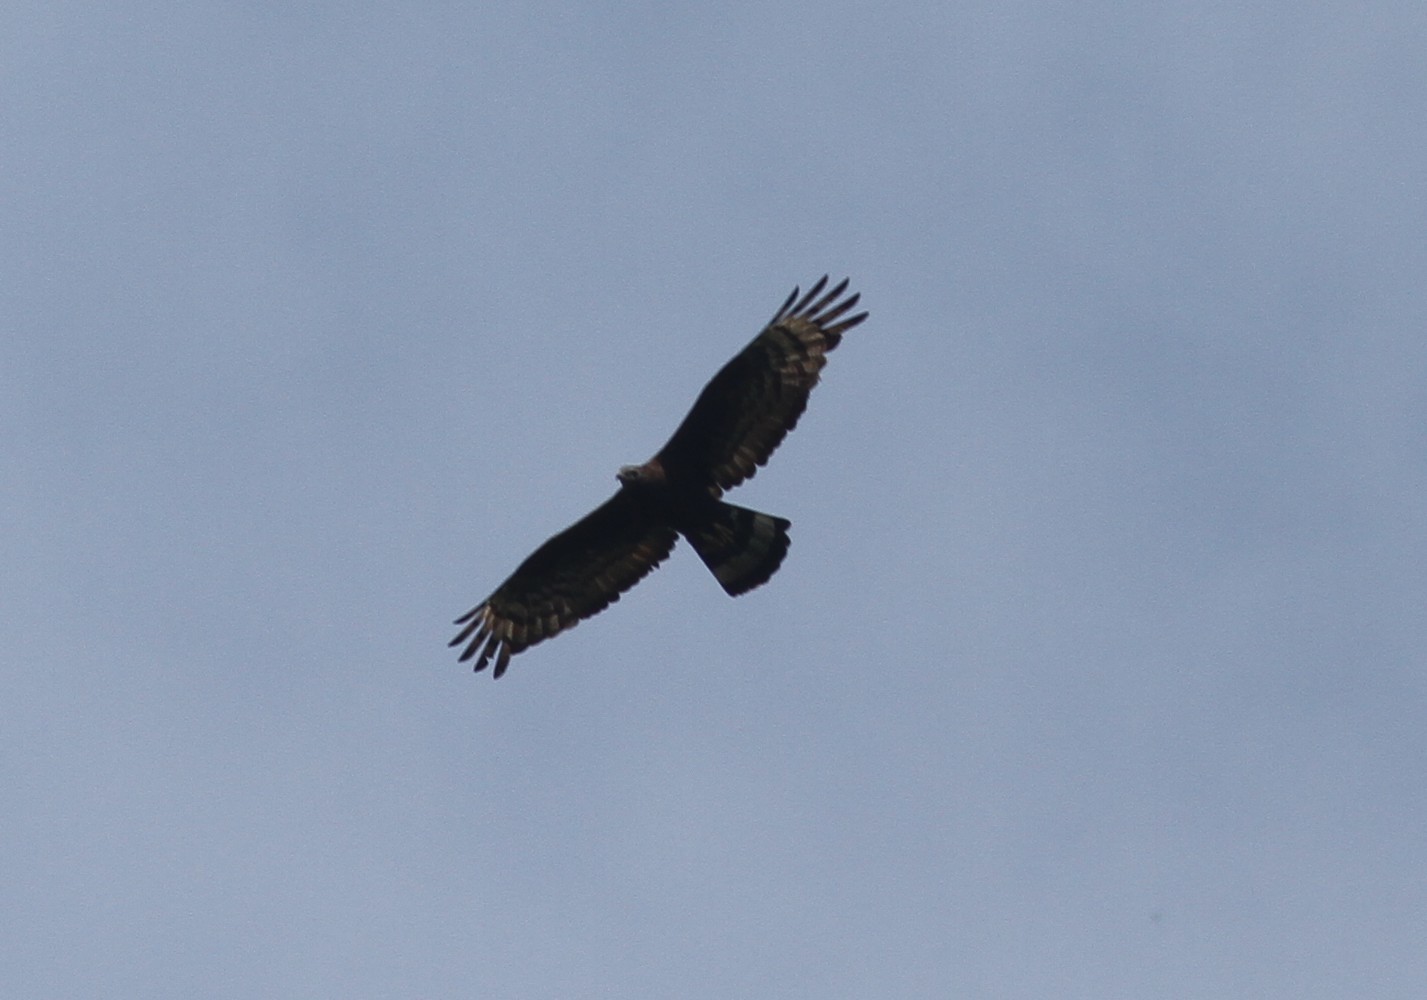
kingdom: Animalia
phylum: Chordata
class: Aves
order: Accipitriformes
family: Accipitridae
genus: Pernis
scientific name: Pernis ptilorhynchus
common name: Crested honey buzzard
